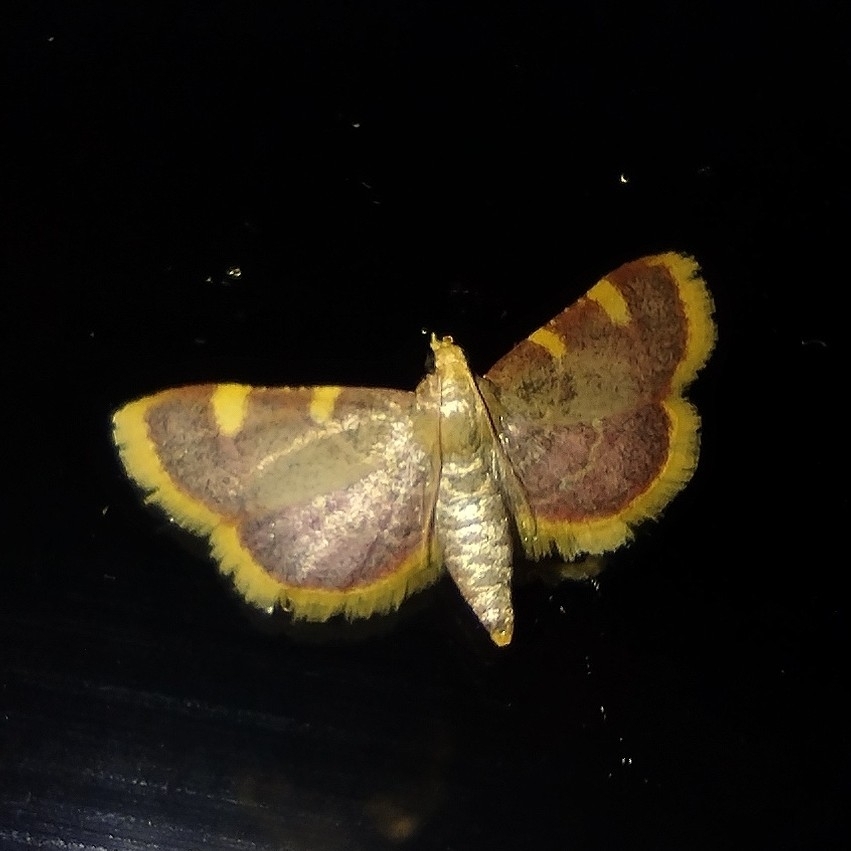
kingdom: Animalia
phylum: Arthropoda
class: Insecta
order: Lepidoptera
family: Pyralidae
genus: Hypsopygia
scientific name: Hypsopygia costalis
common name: Gold triangle
